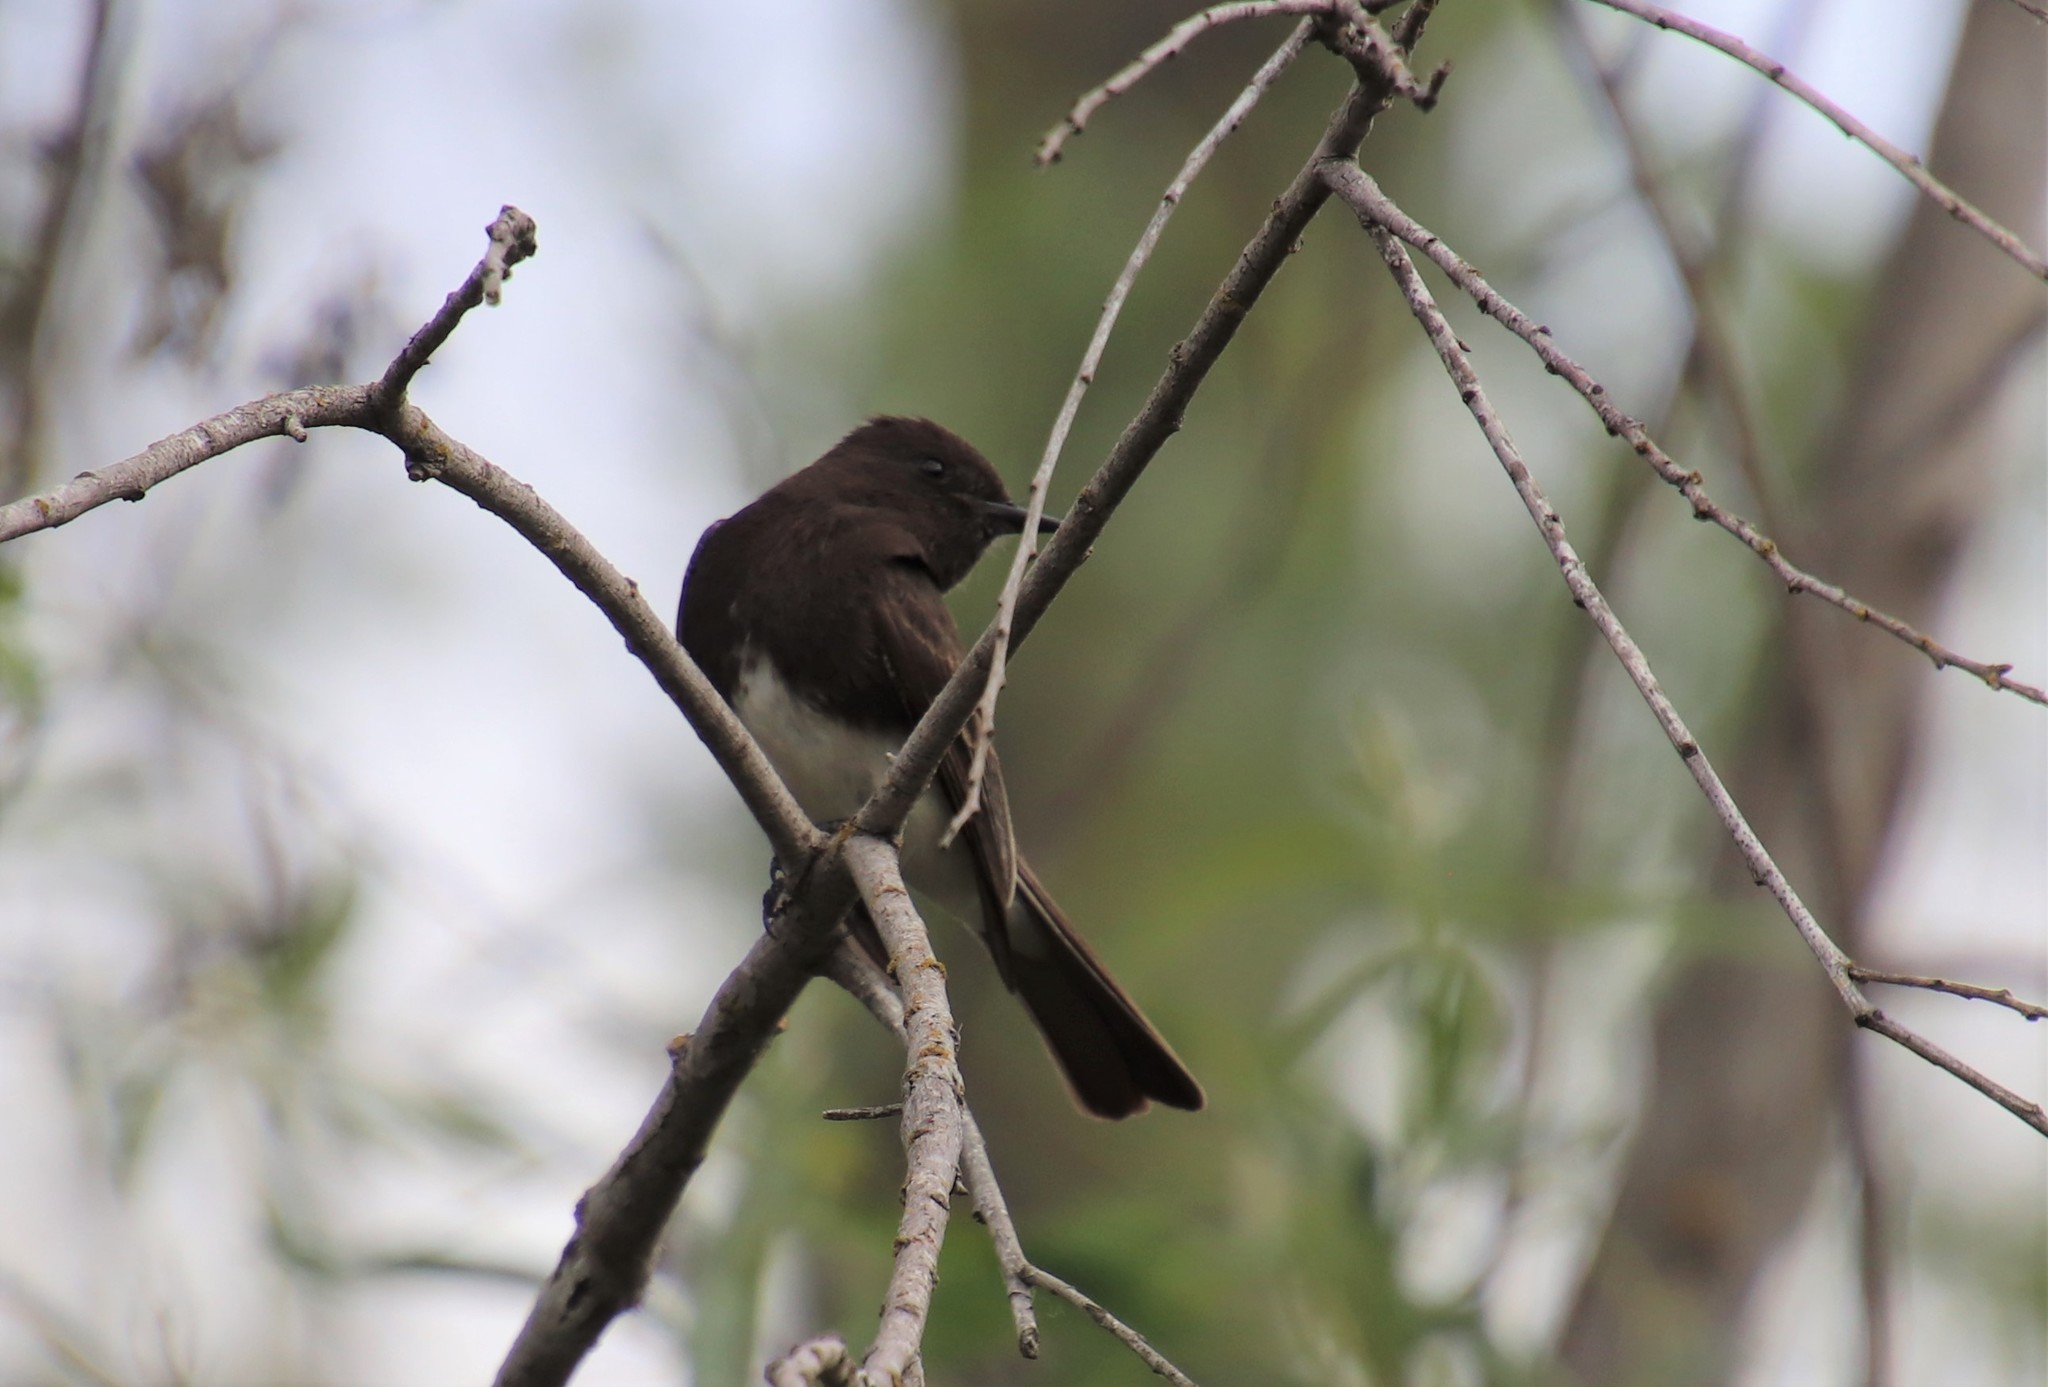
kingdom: Animalia
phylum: Chordata
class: Aves
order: Passeriformes
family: Tyrannidae
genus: Sayornis
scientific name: Sayornis nigricans
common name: Black phoebe
